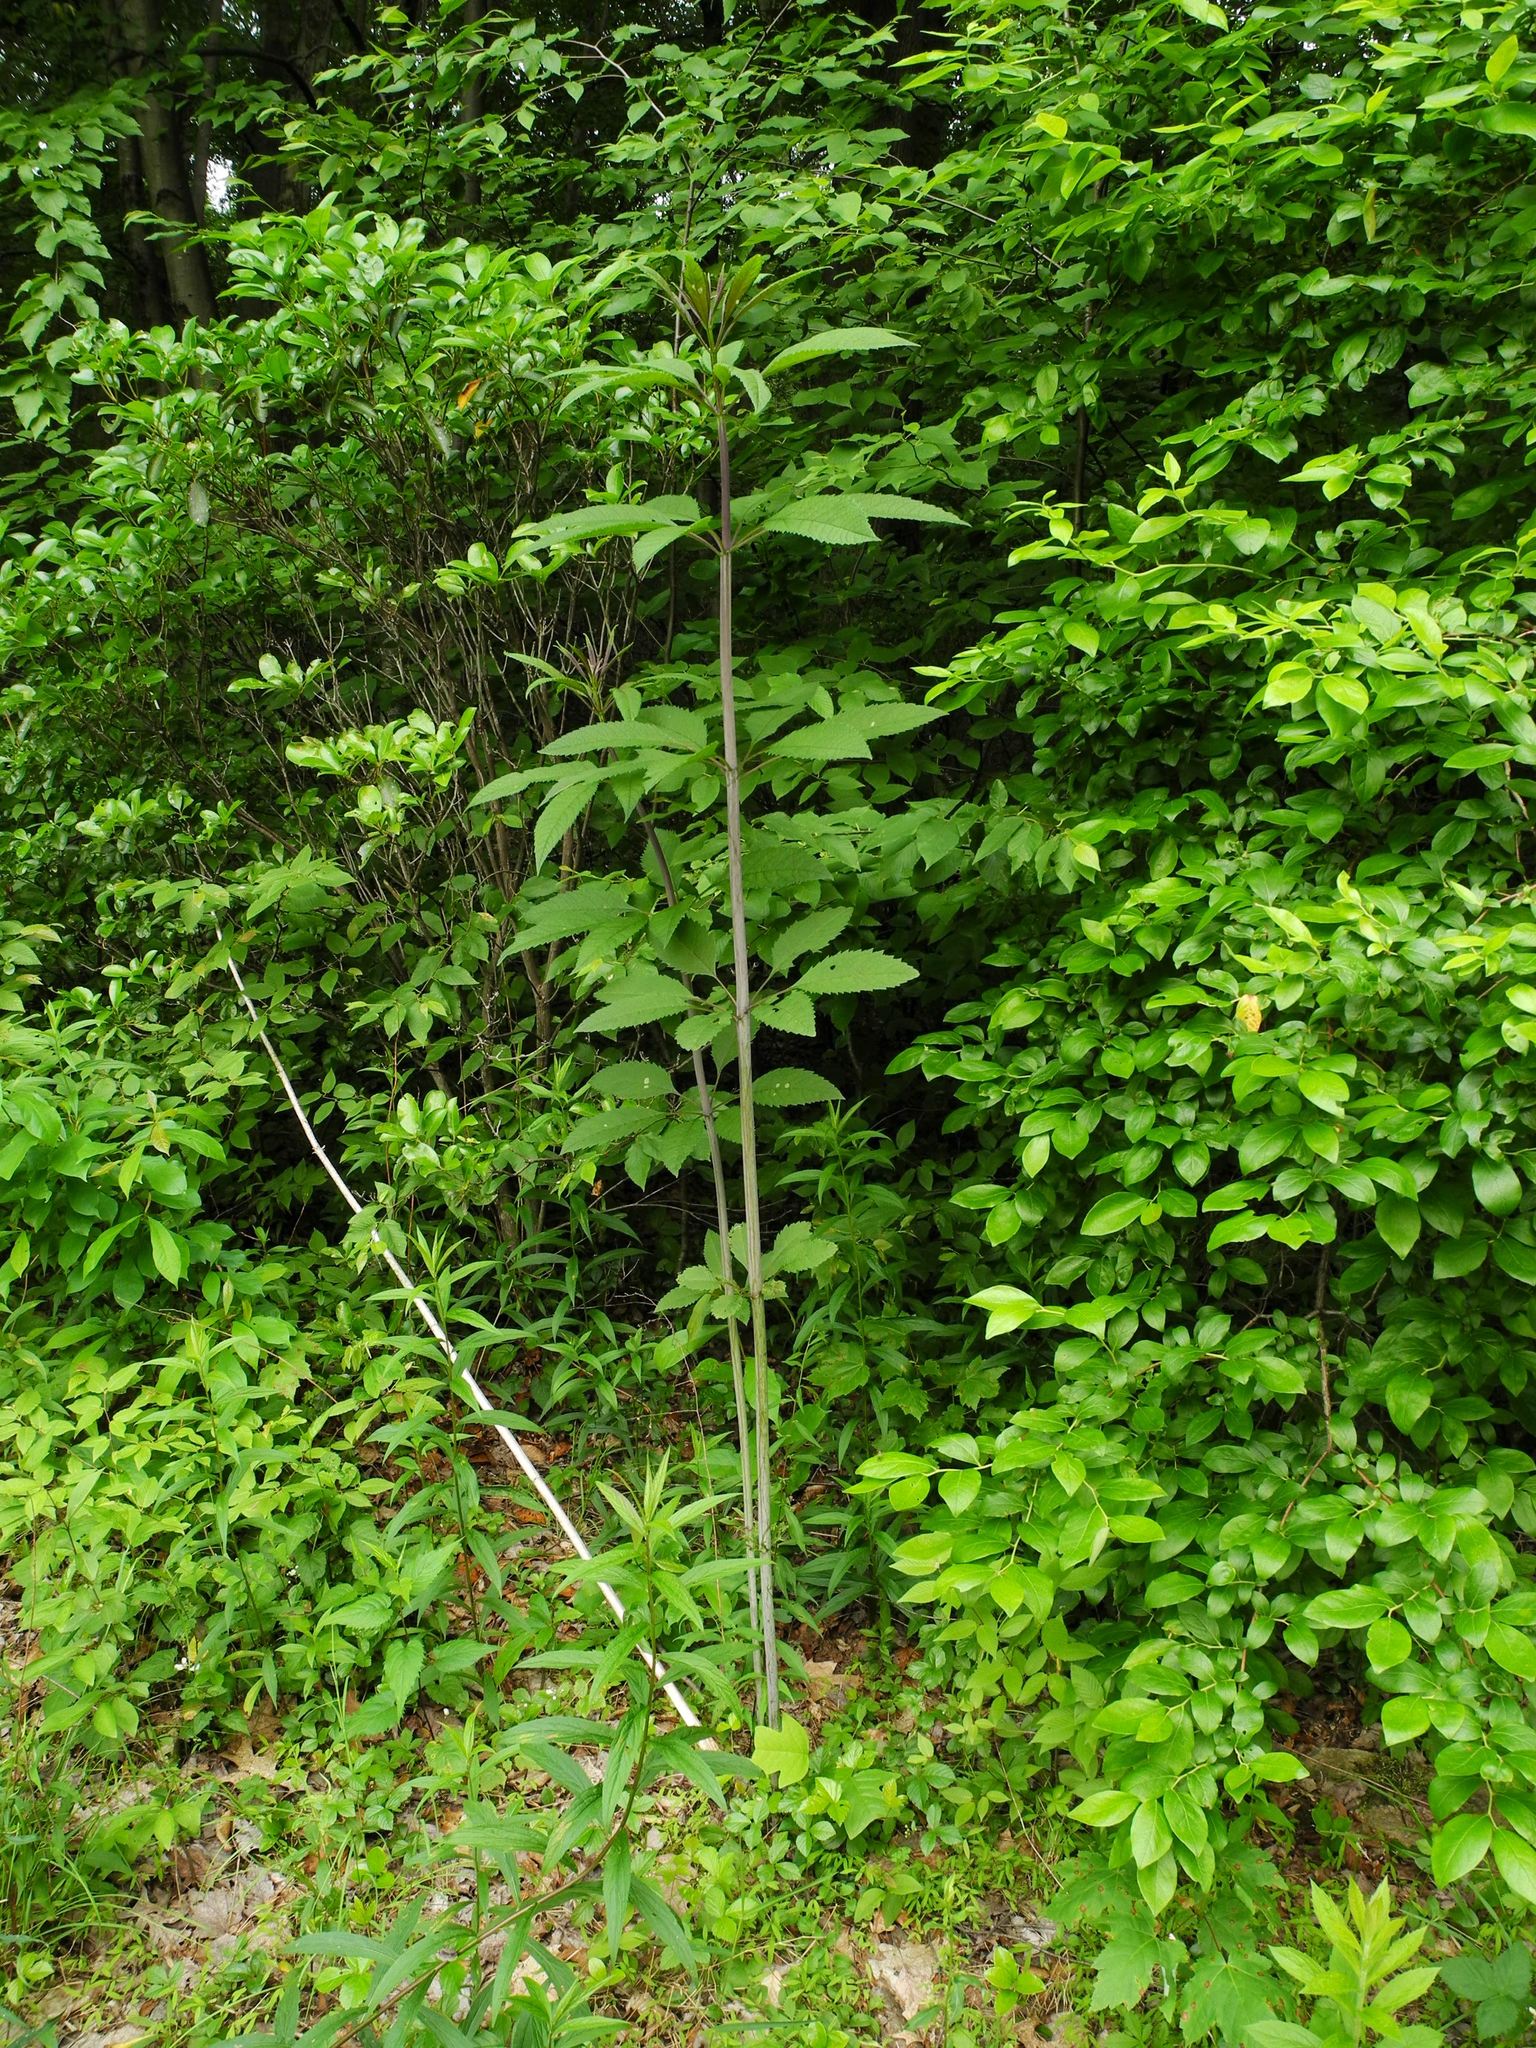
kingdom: Plantae
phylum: Tracheophyta
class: Magnoliopsida
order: Asterales
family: Asteraceae
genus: Eutrochium
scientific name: Eutrochium fistulosum
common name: Trumpetweed
